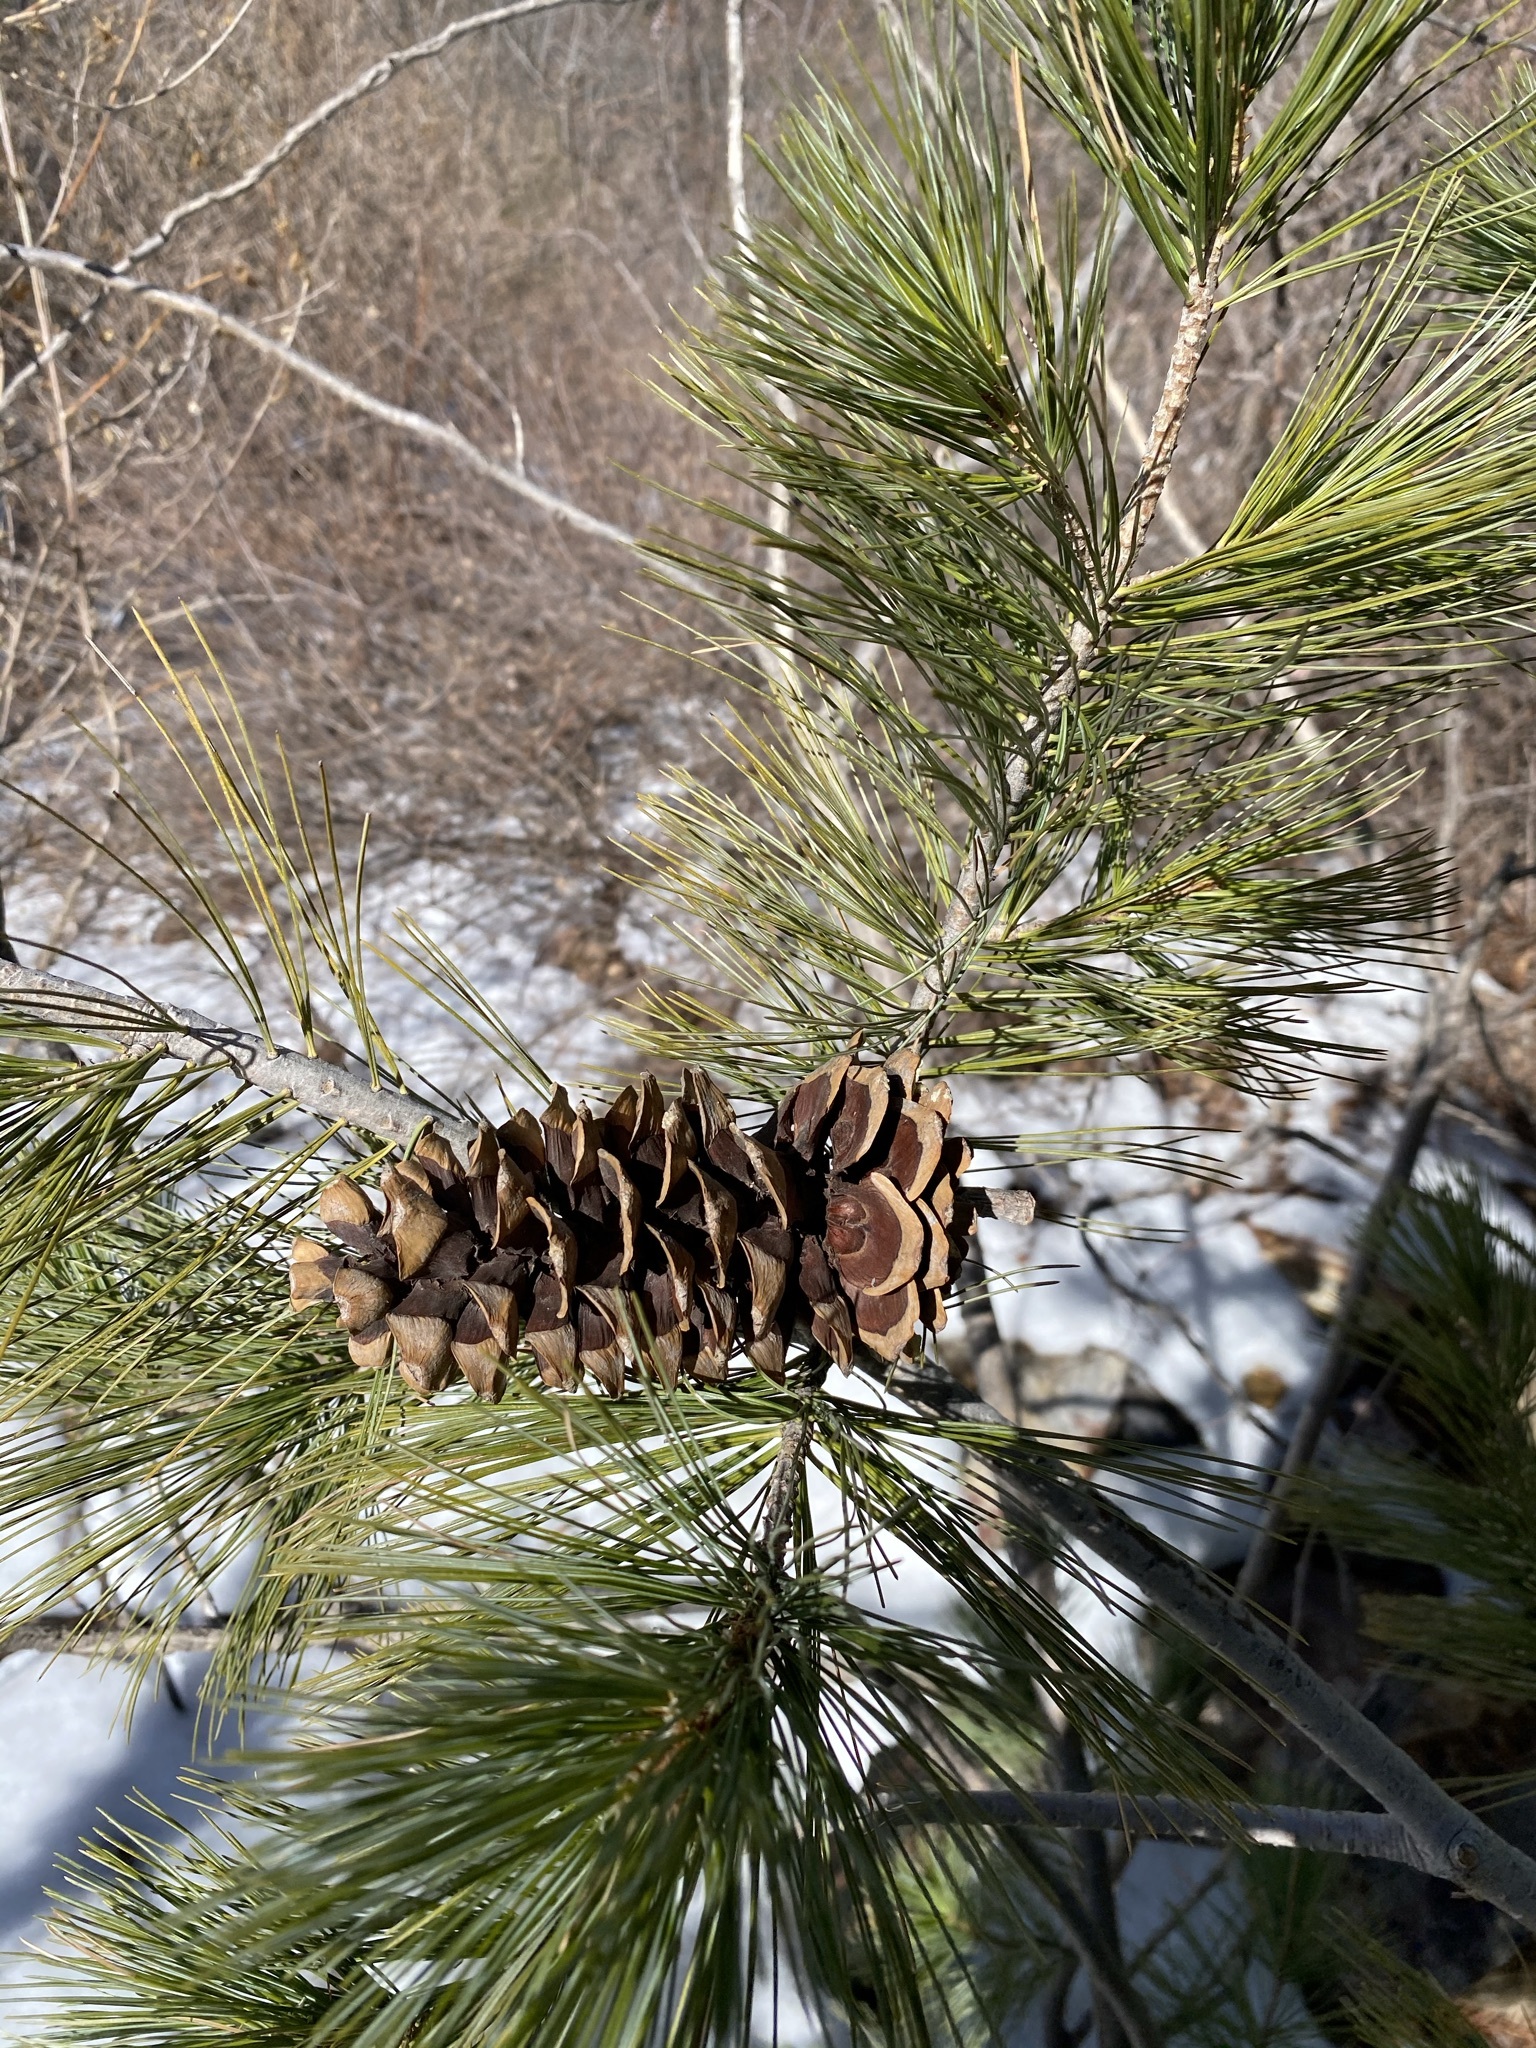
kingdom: Plantae
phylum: Tracheophyta
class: Pinopsida
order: Pinales
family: Pinaceae
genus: Pinus
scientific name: Pinus strobiformis
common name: Southwestern white pine
